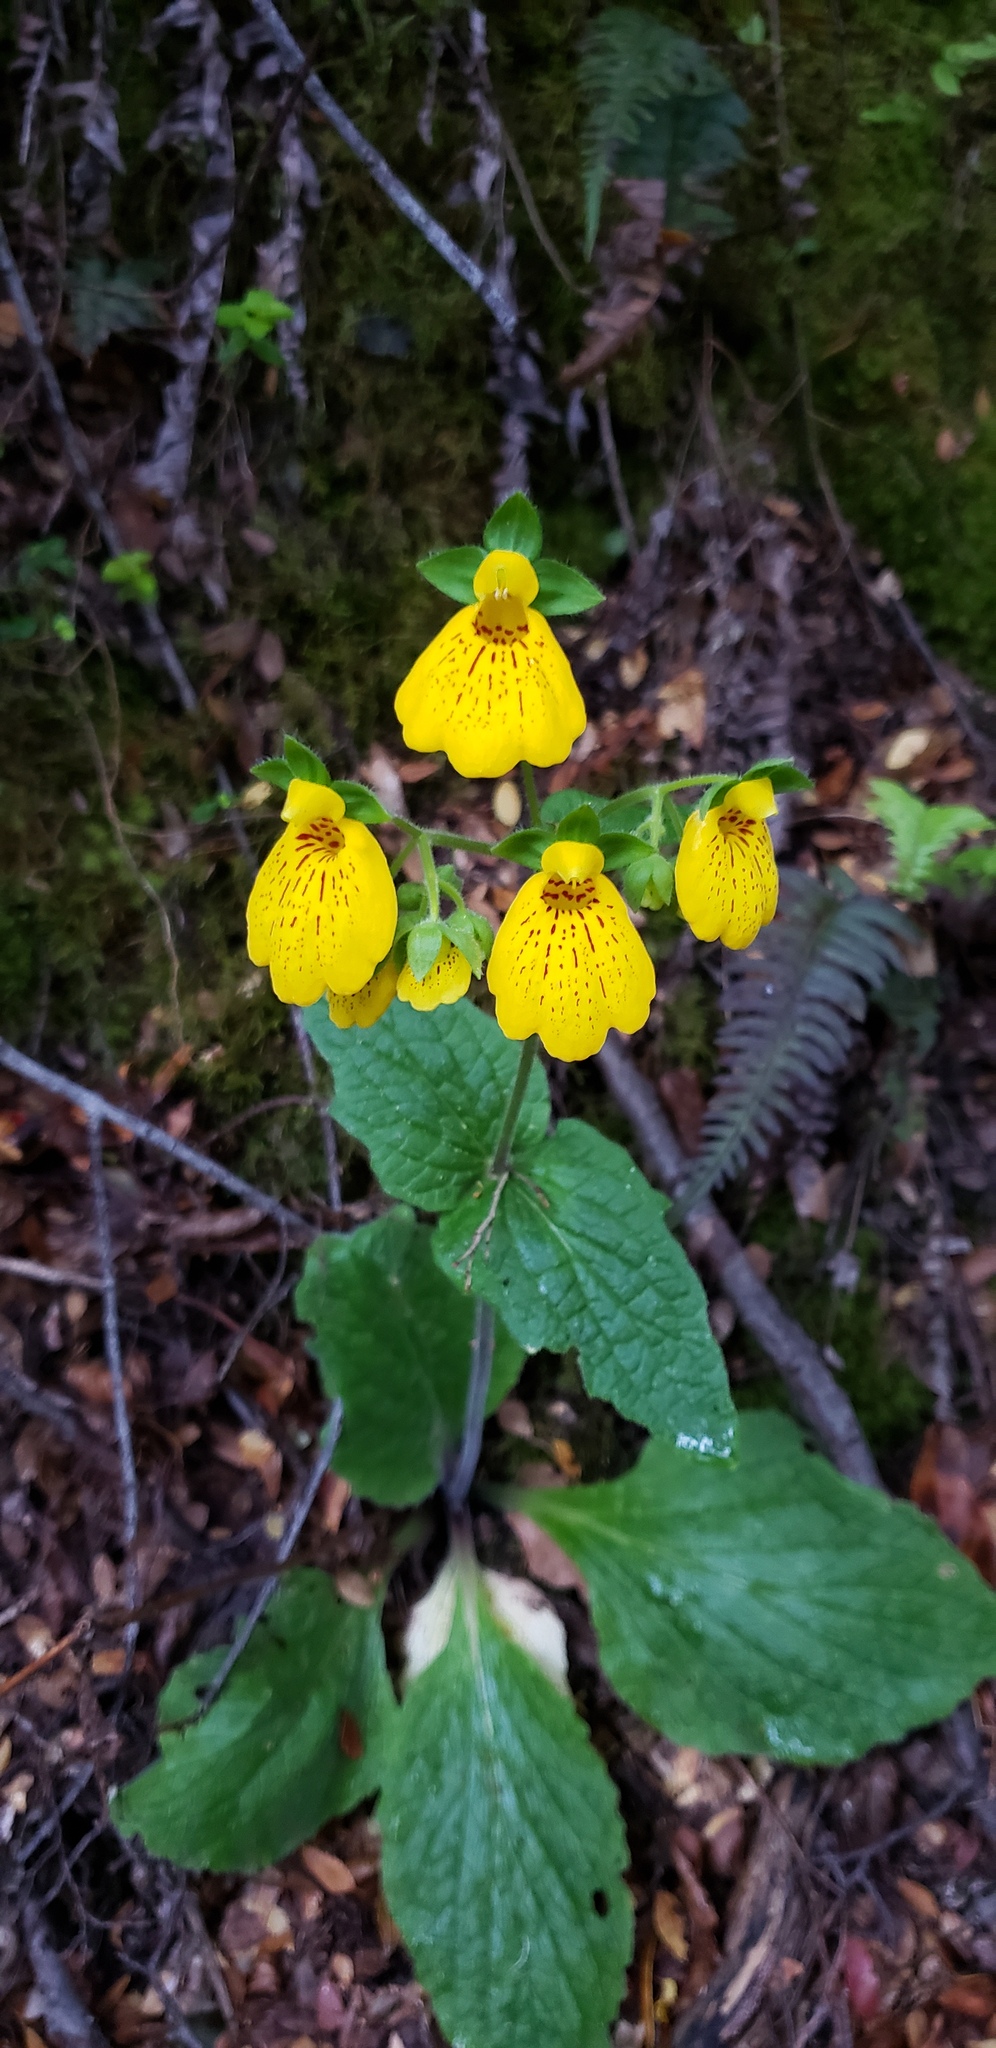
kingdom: Plantae
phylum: Tracheophyta
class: Magnoliopsida
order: Lamiales
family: Calceolariaceae
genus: Calceolaria
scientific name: Calceolaria crenatiflora
